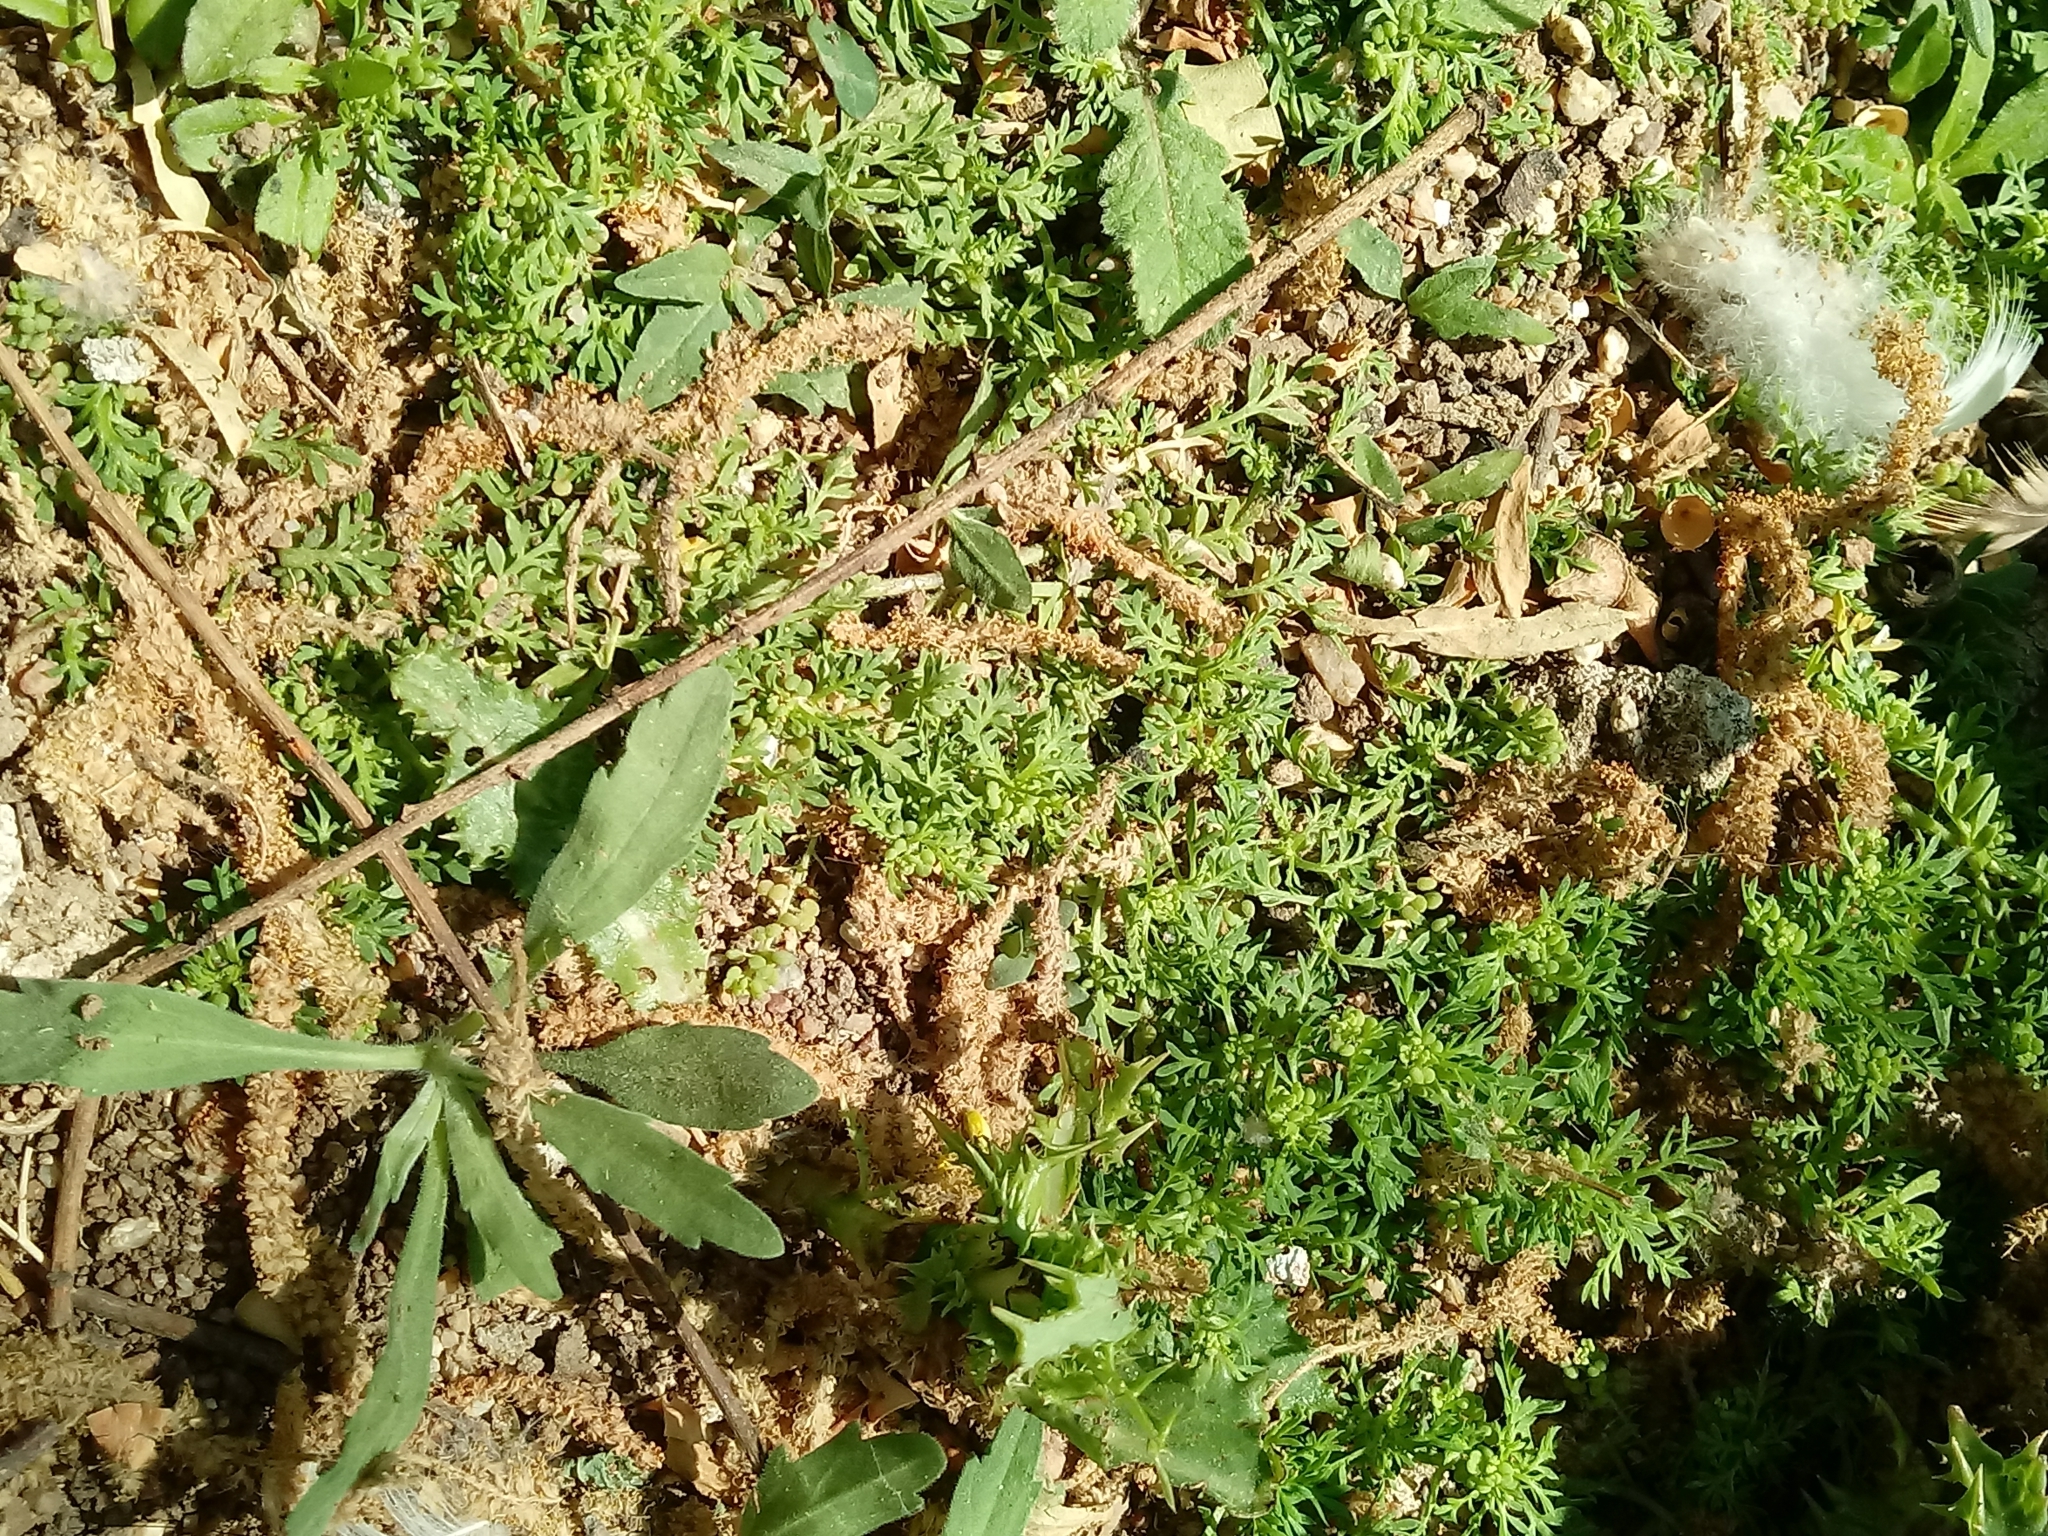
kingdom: Plantae
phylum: Tracheophyta
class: Magnoliopsida
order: Brassicales
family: Brassicaceae
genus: Lepidium
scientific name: Lepidium didymum
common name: Lesser swinecress
